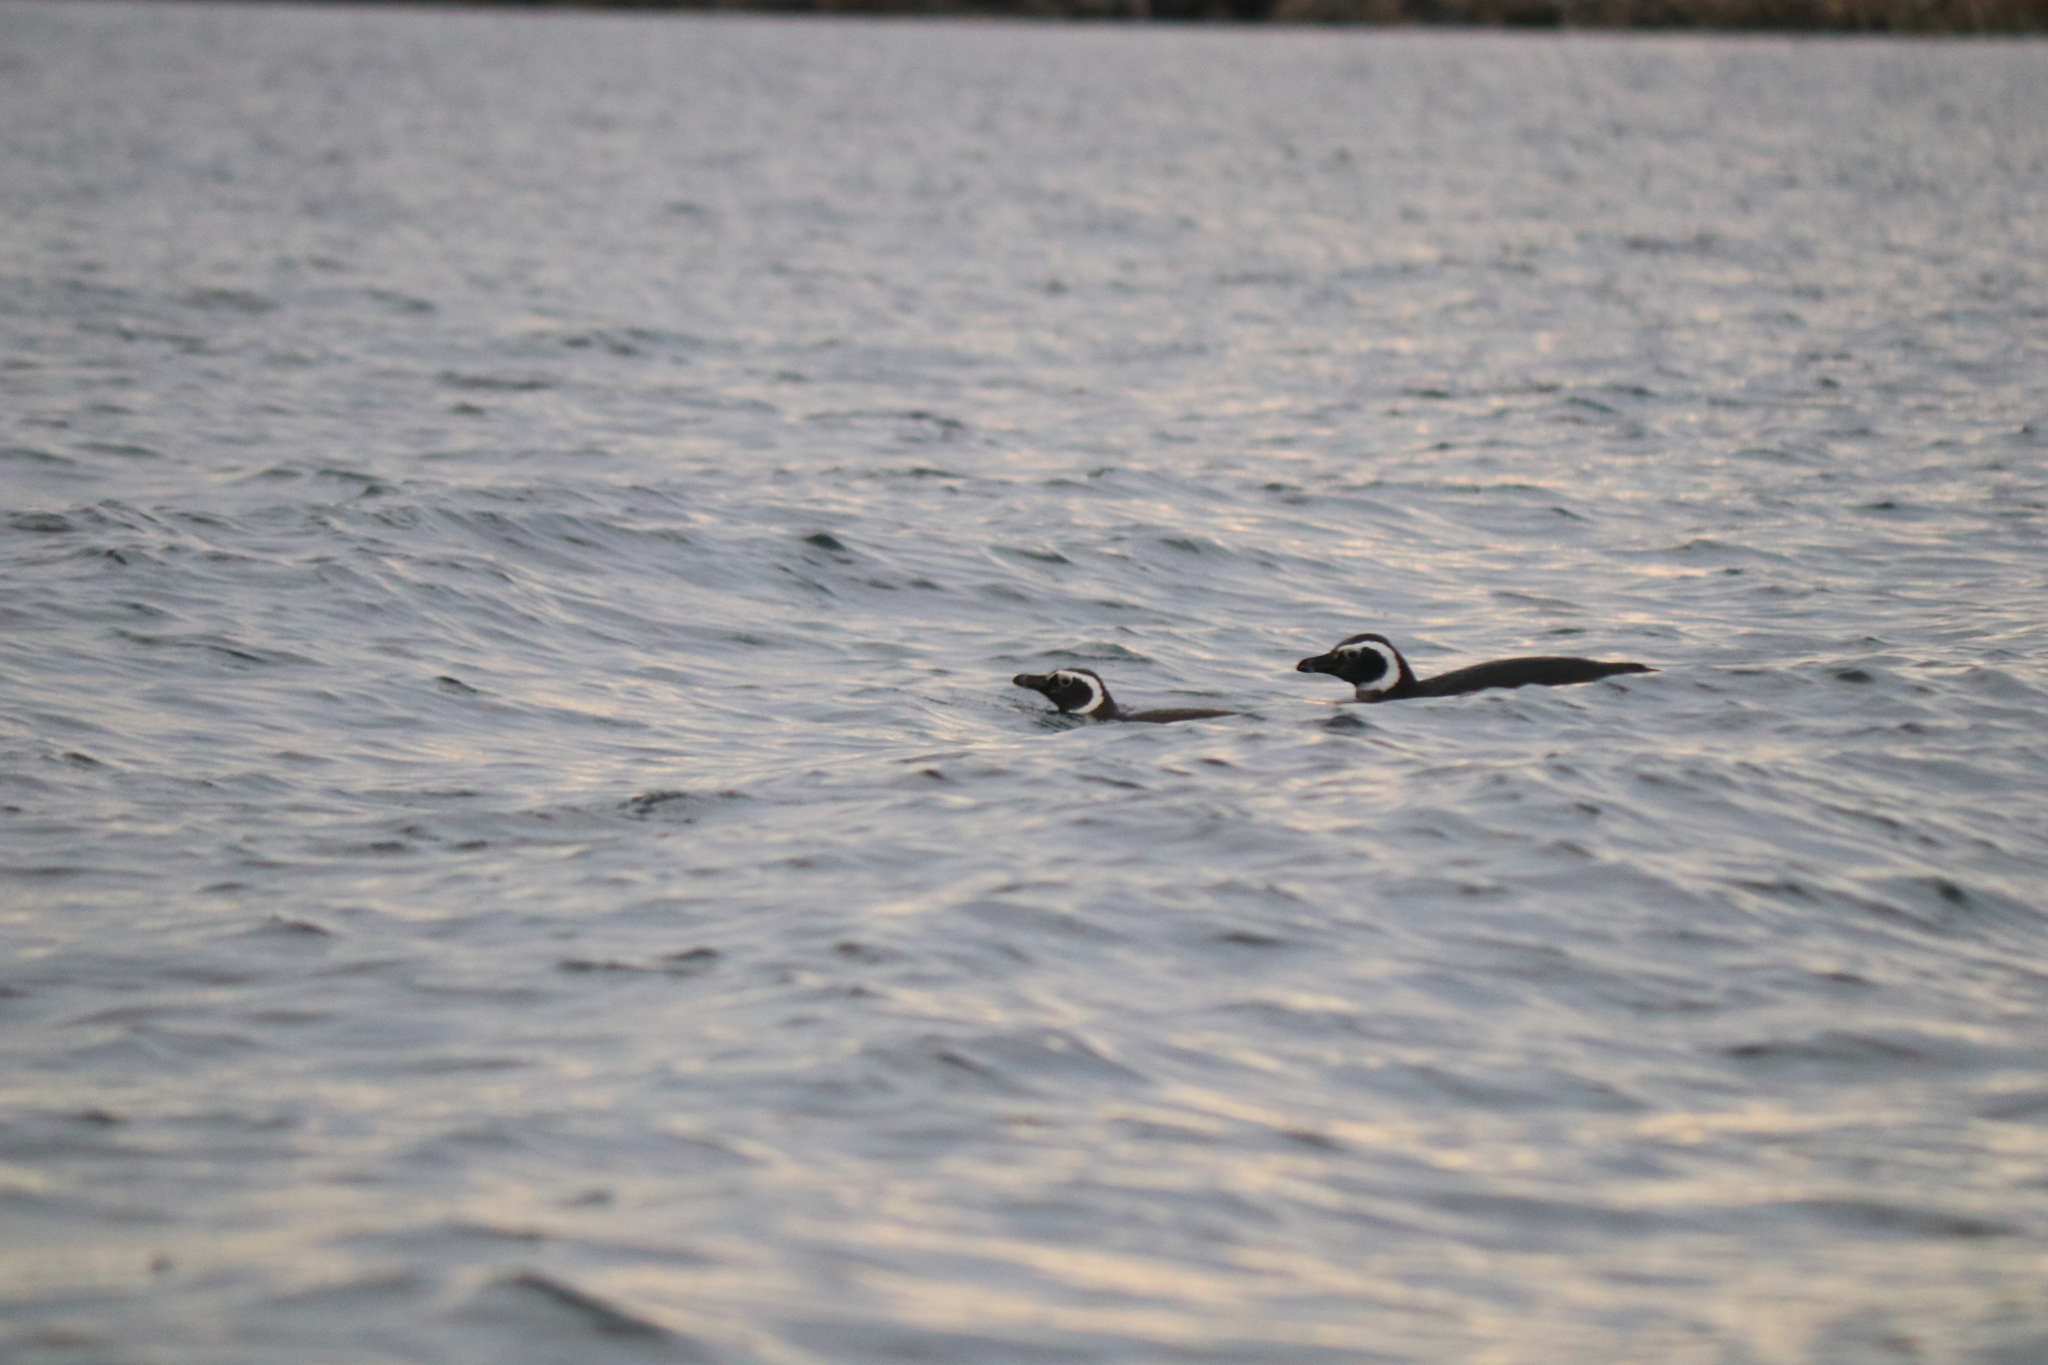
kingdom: Animalia
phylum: Chordata
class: Aves
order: Sphenisciformes
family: Spheniscidae
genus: Spheniscus
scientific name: Spheniscus magellanicus
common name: Magellanic penguin
